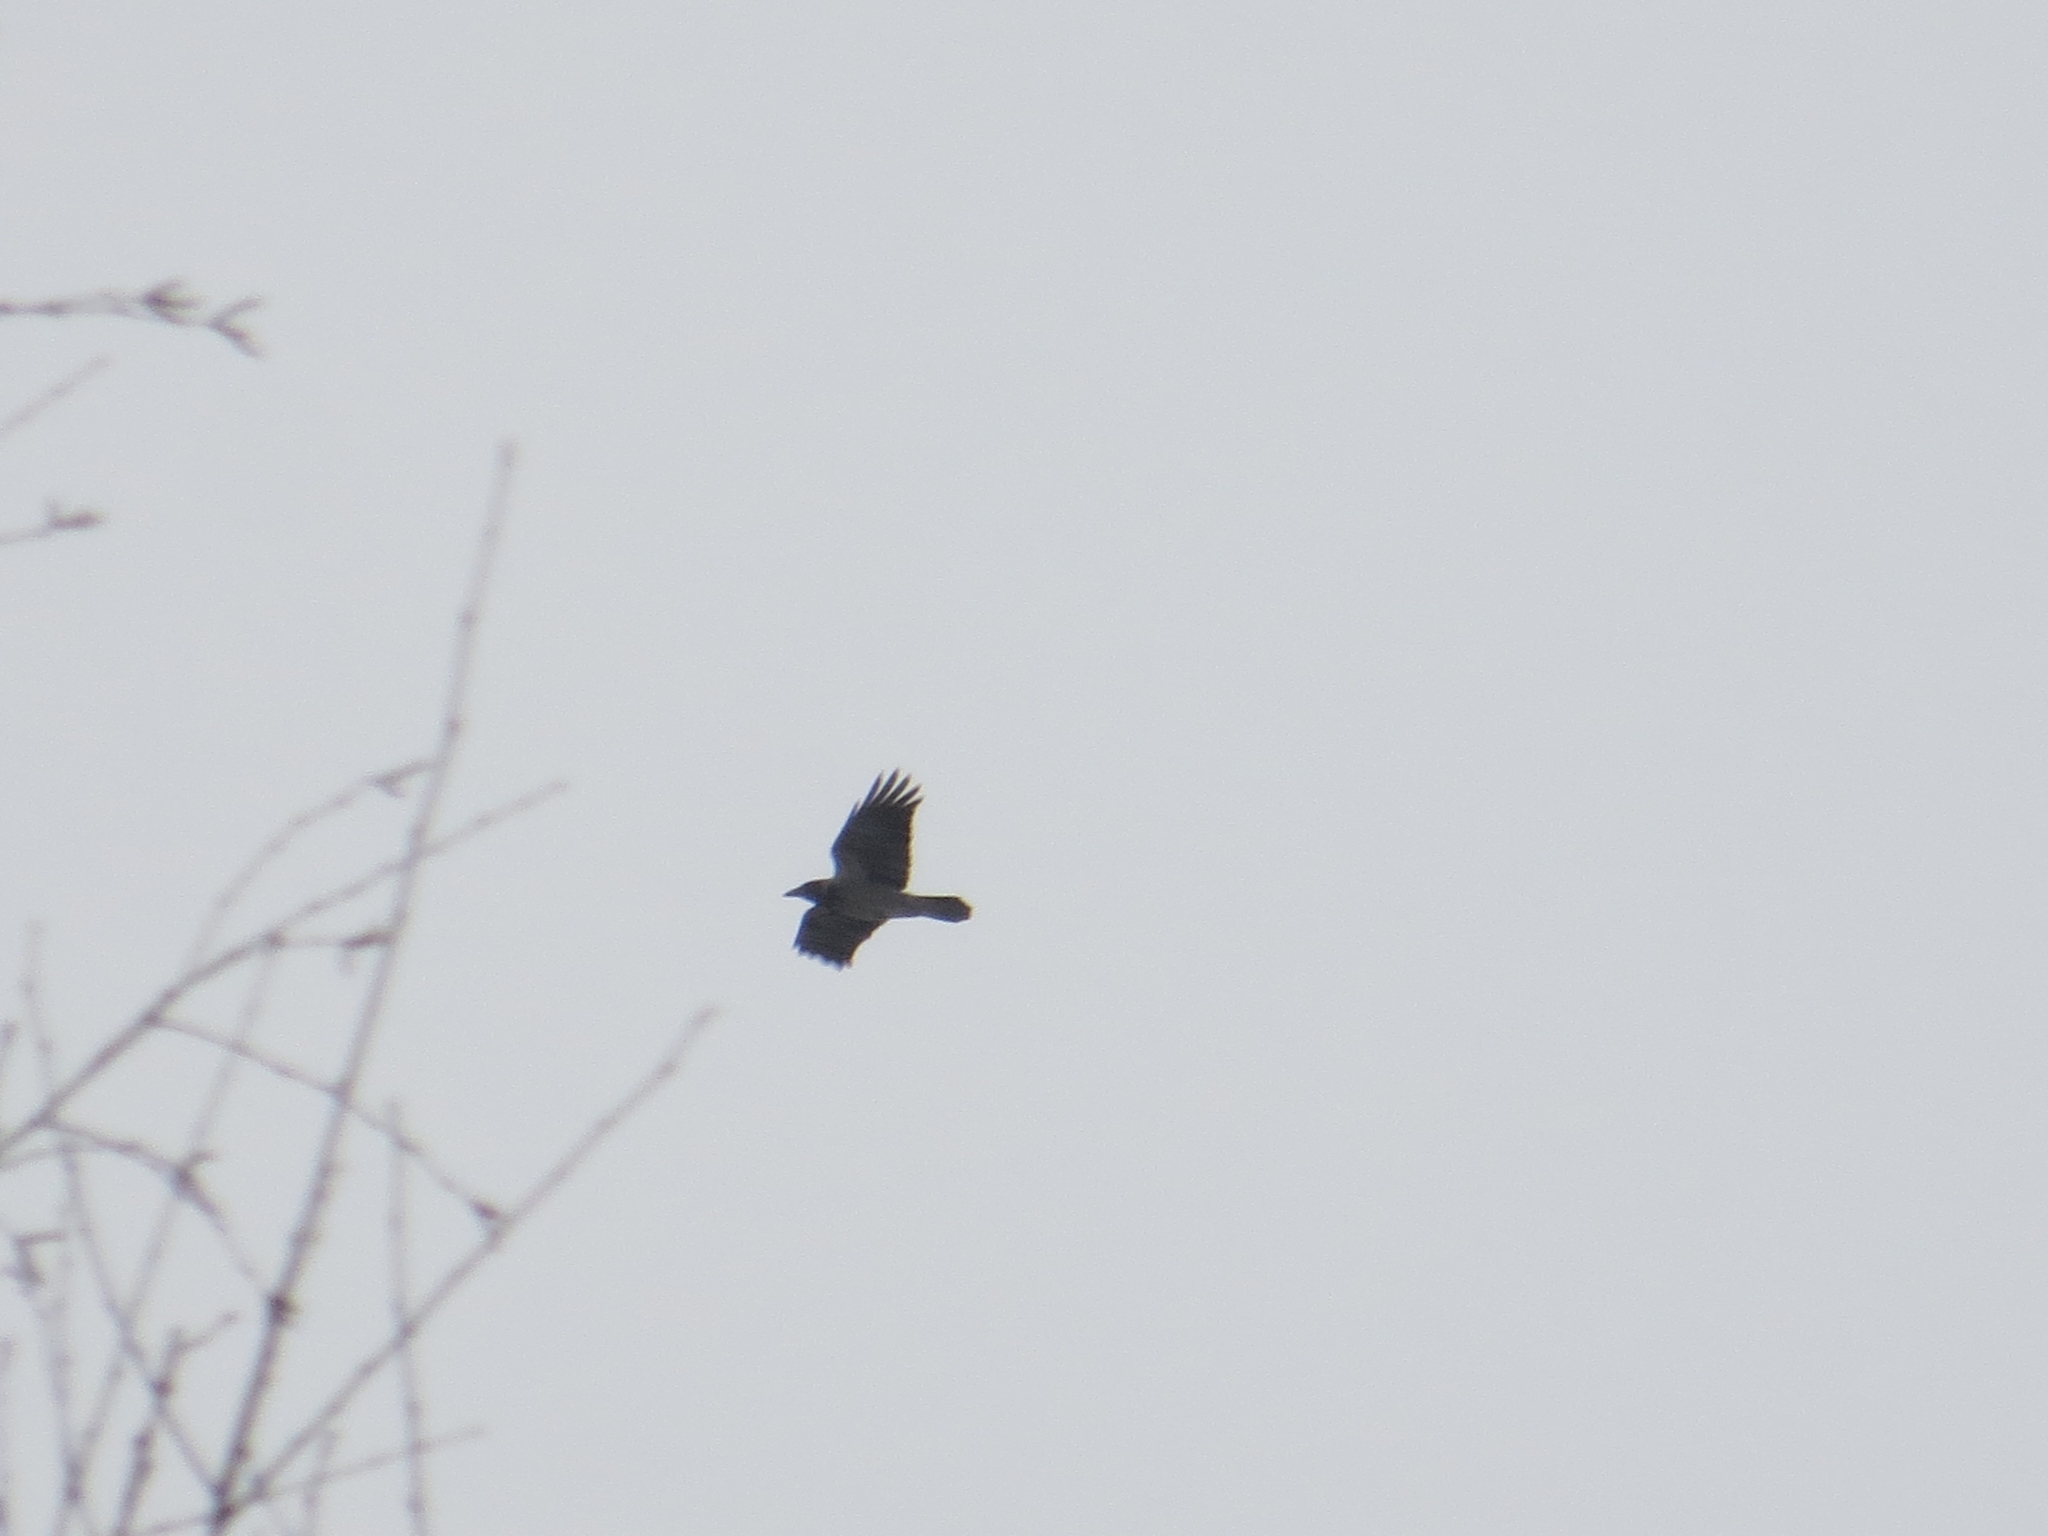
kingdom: Animalia
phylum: Chordata
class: Aves
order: Passeriformes
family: Corvidae
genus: Corvus
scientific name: Corvus cornix
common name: Hooded crow
